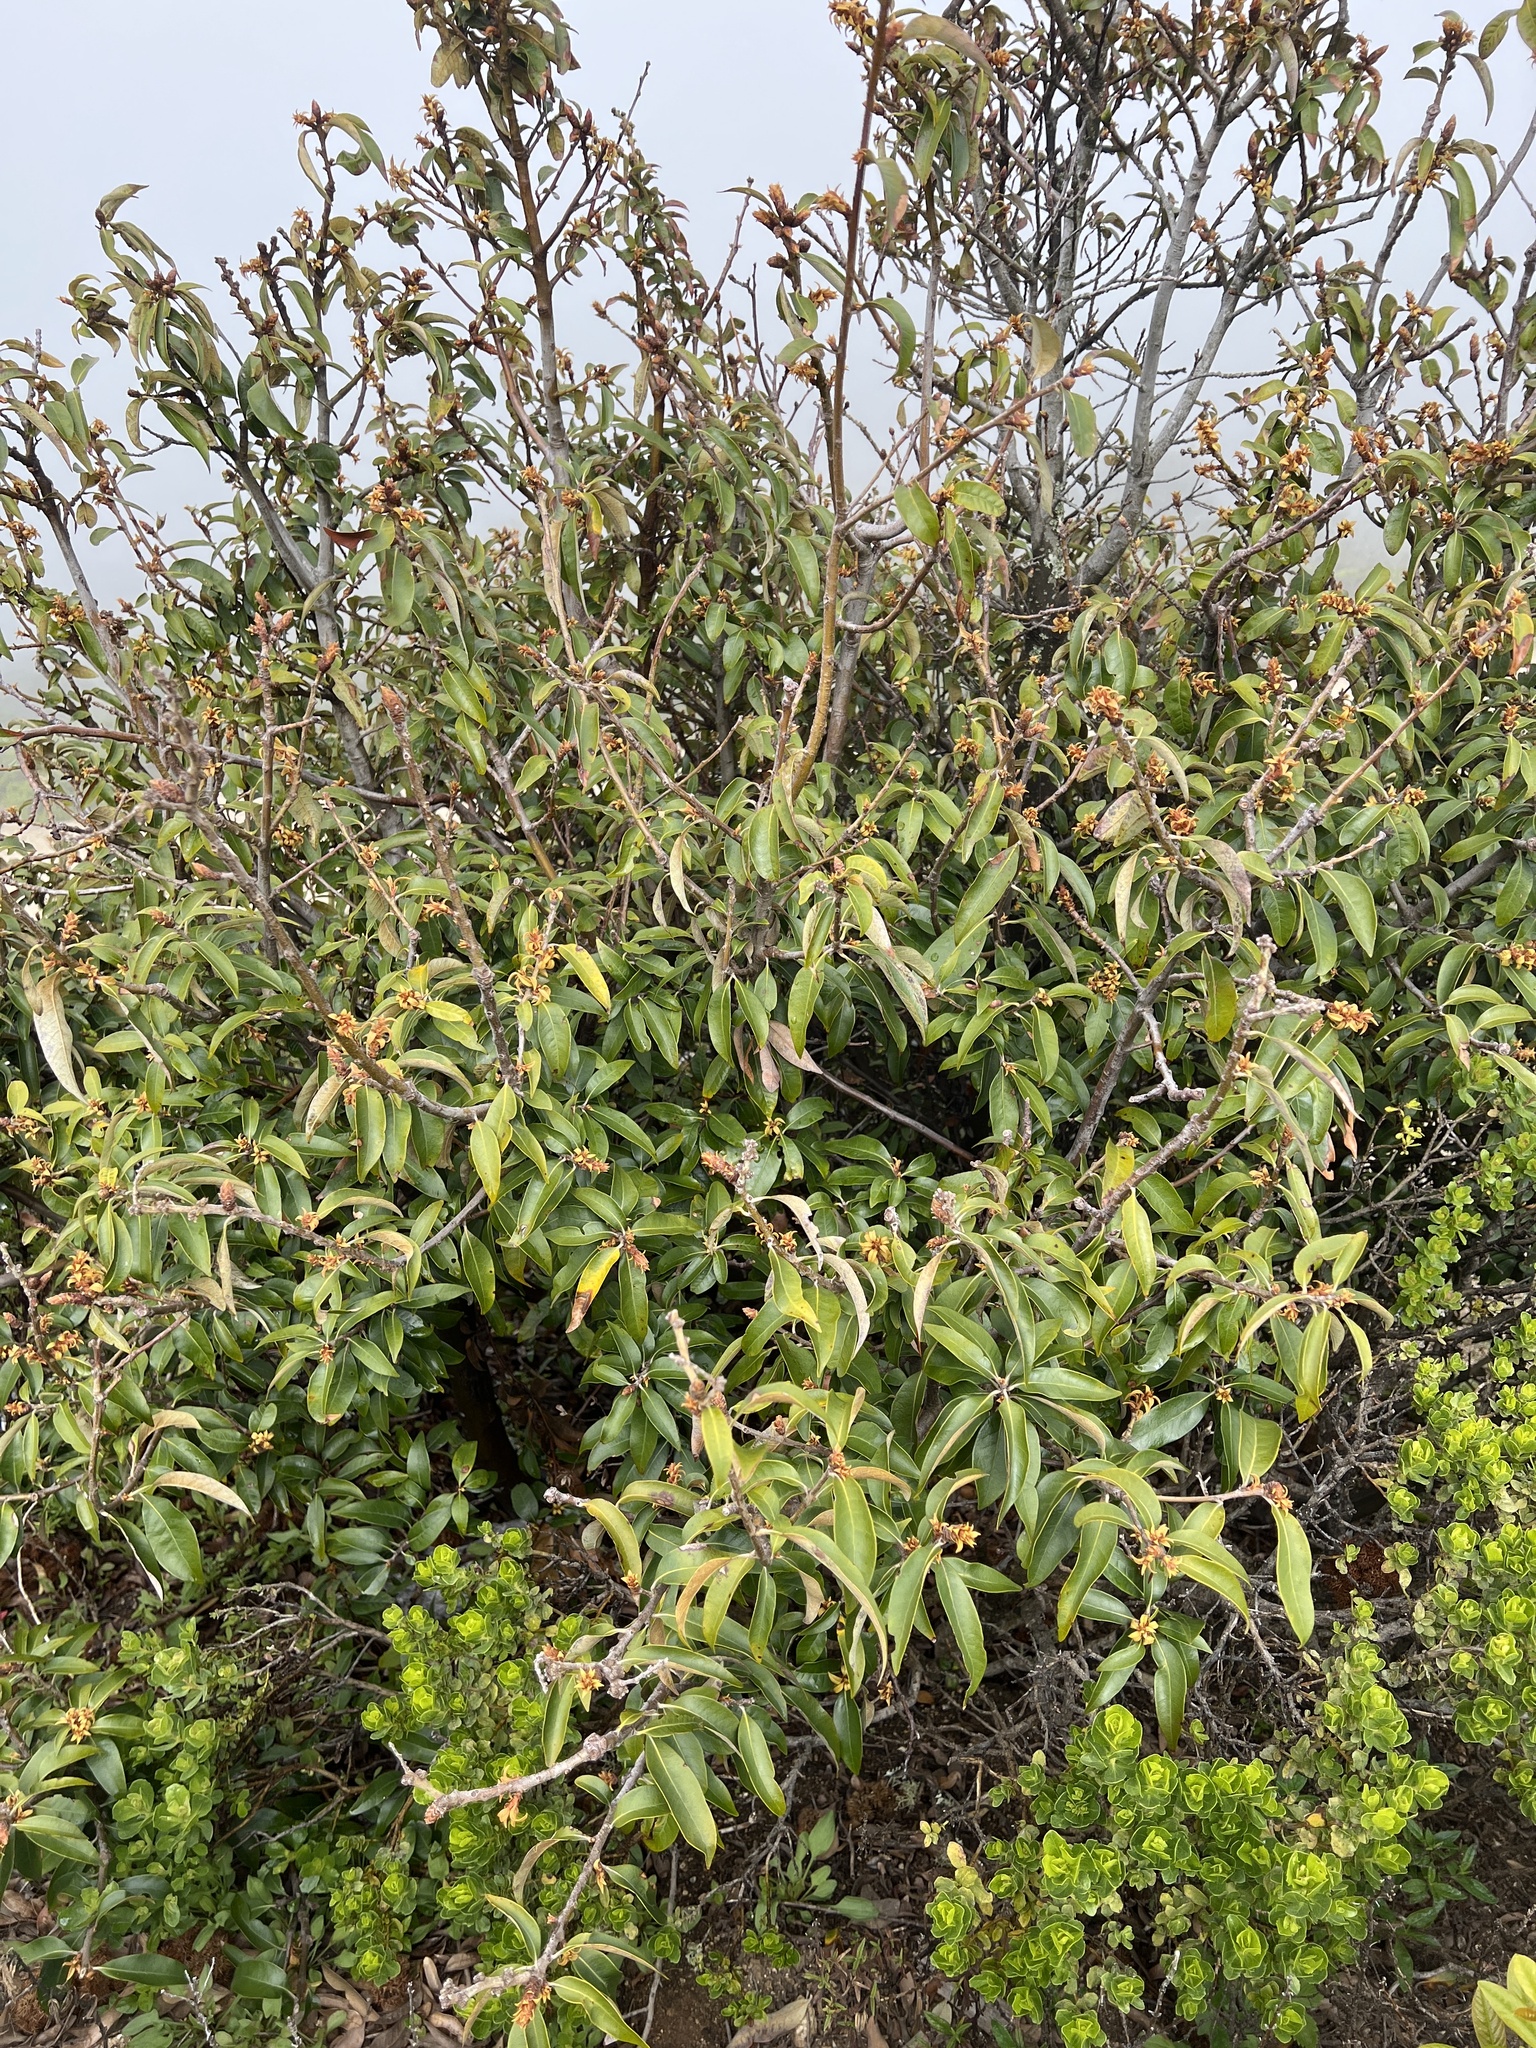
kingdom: Plantae
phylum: Tracheophyta
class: Magnoliopsida
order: Fagales
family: Fagaceae
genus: Chrysolepis
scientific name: Chrysolepis chrysophylla
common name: Giant chinquapin
